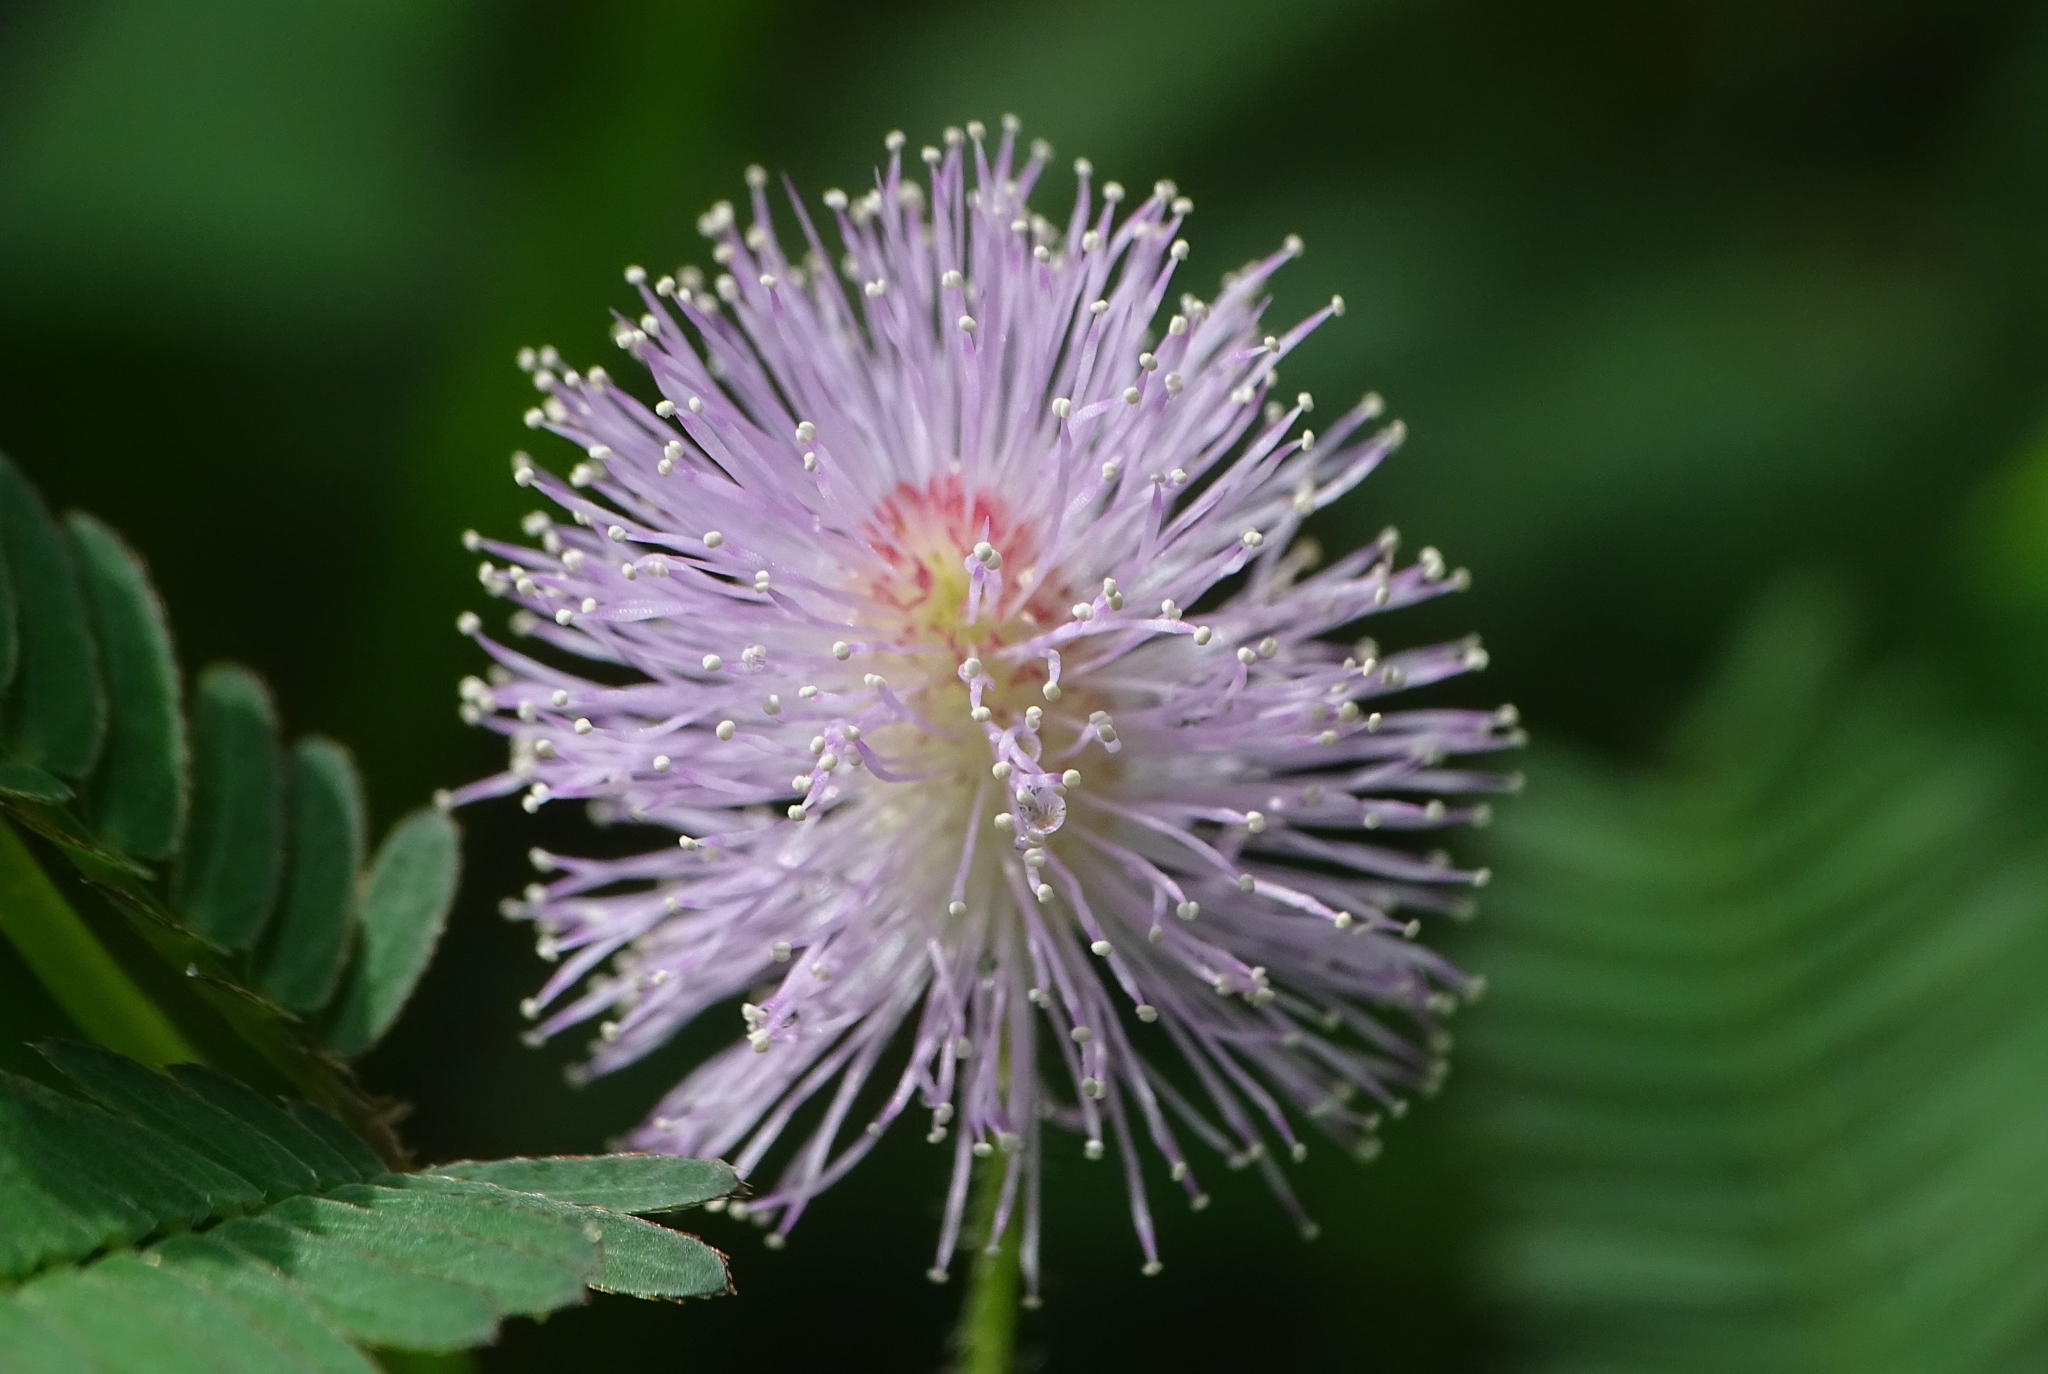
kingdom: Plantae
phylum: Tracheophyta
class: Magnoliopsida
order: Fabales
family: Fabaceae
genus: Mimosa
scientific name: Mimosa pudica
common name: Sensitive plant
